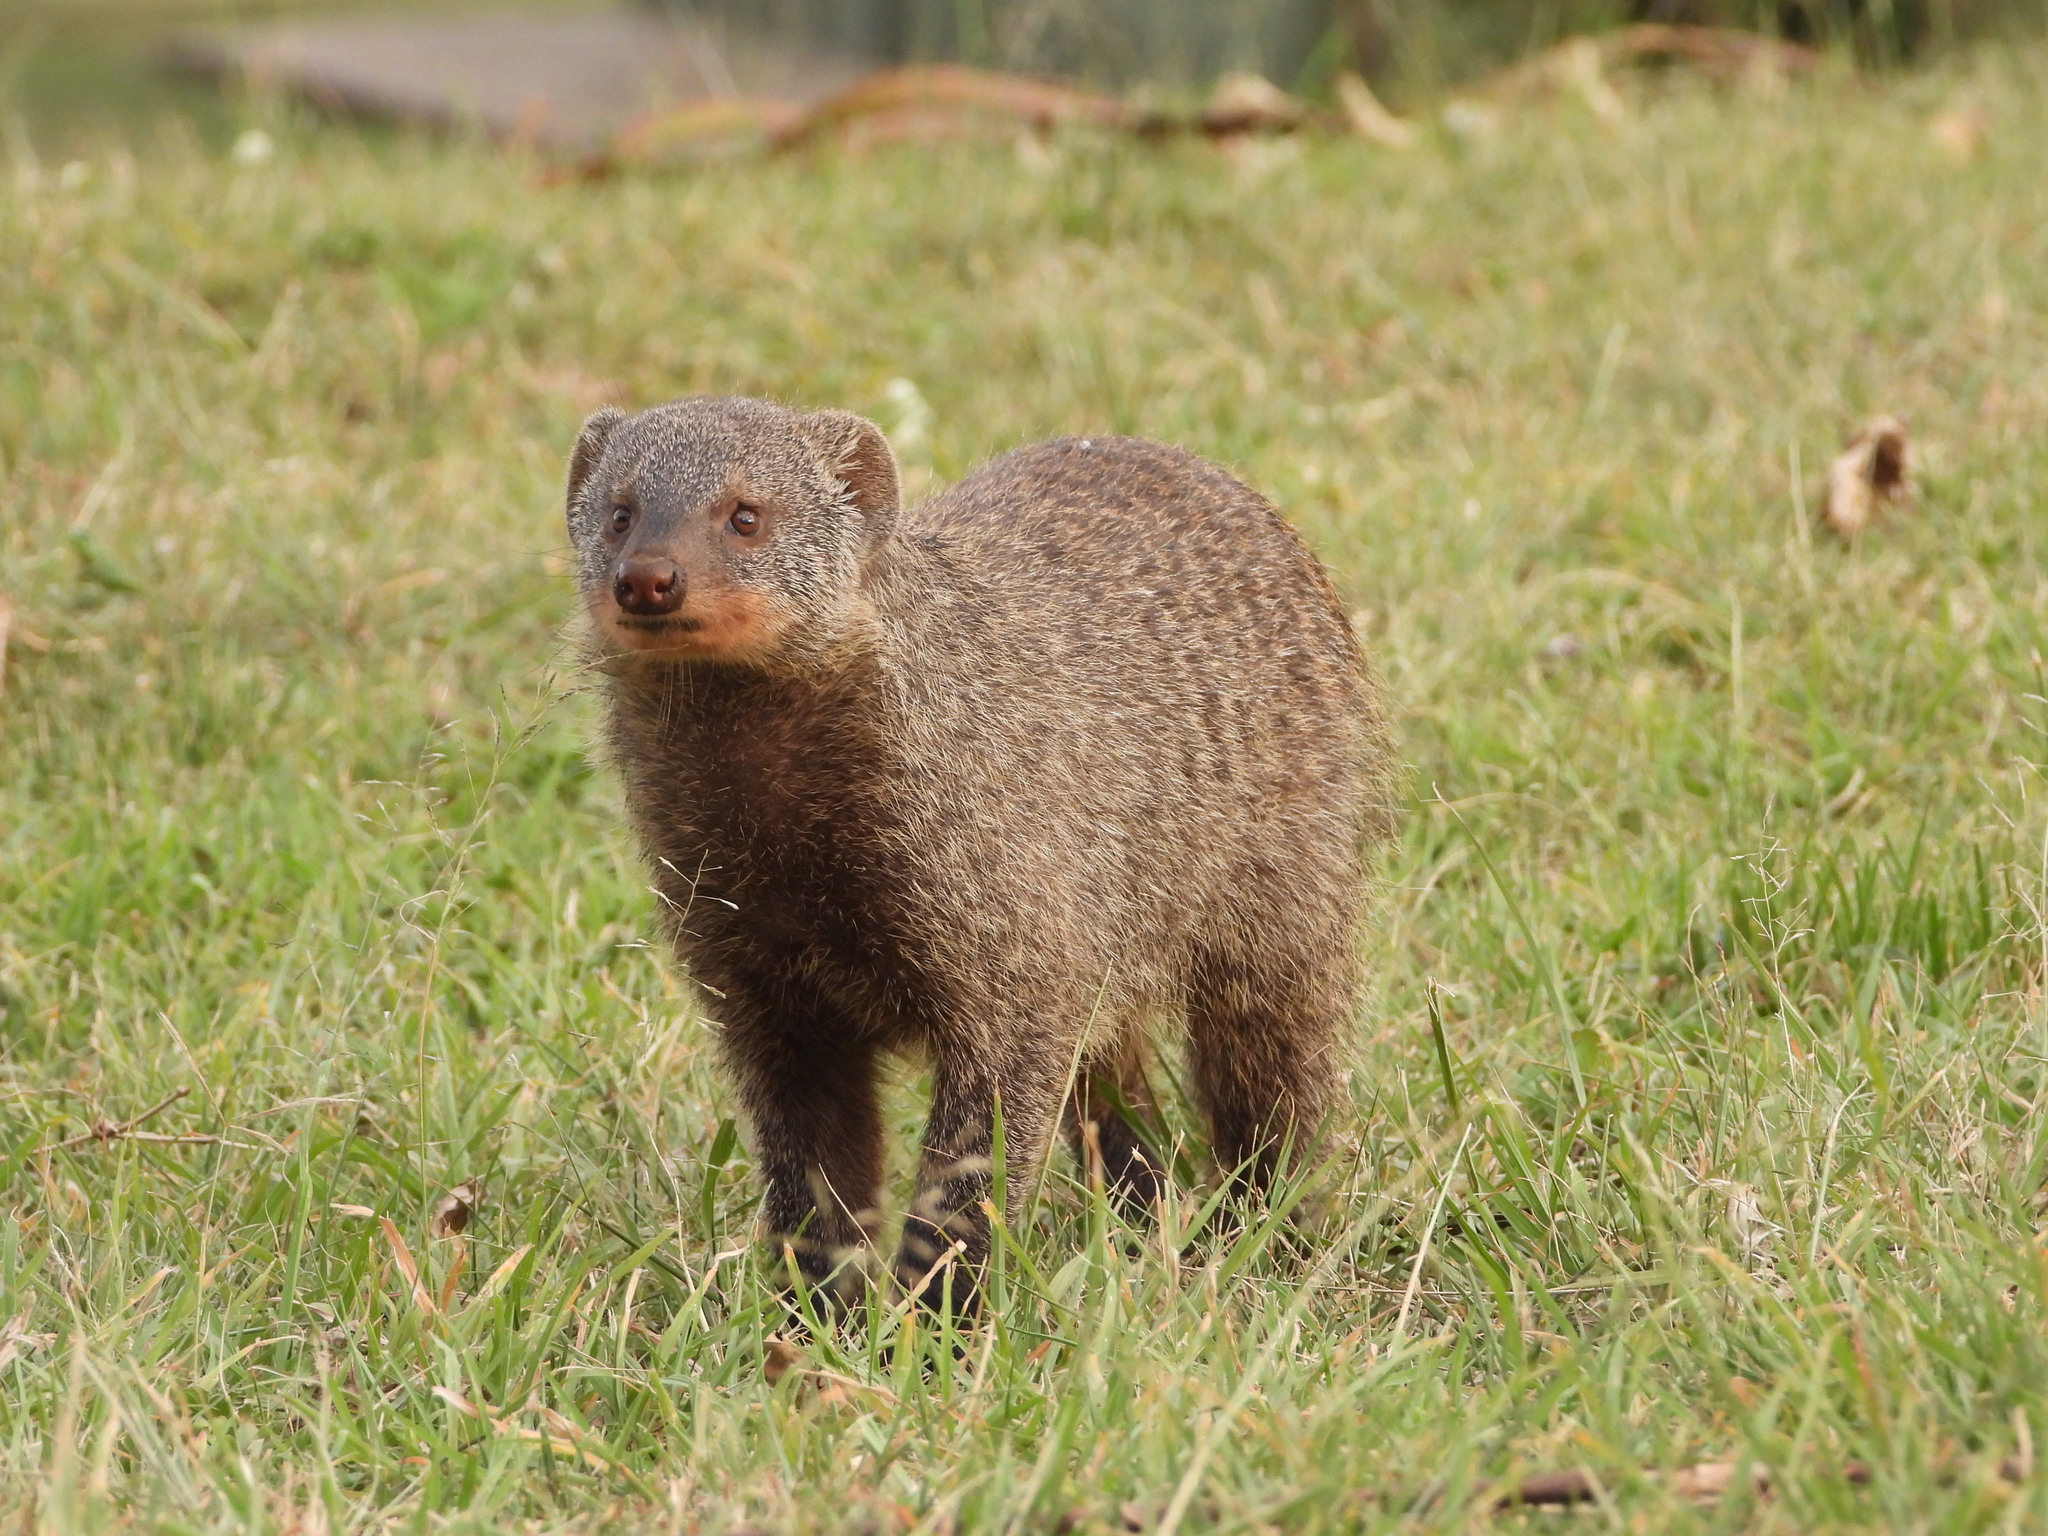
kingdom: Animalia
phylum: Chordata
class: Mammalia
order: Carnivora
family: Herpestidae
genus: Mungos
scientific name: Mungos mungo
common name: Banded mongoose
